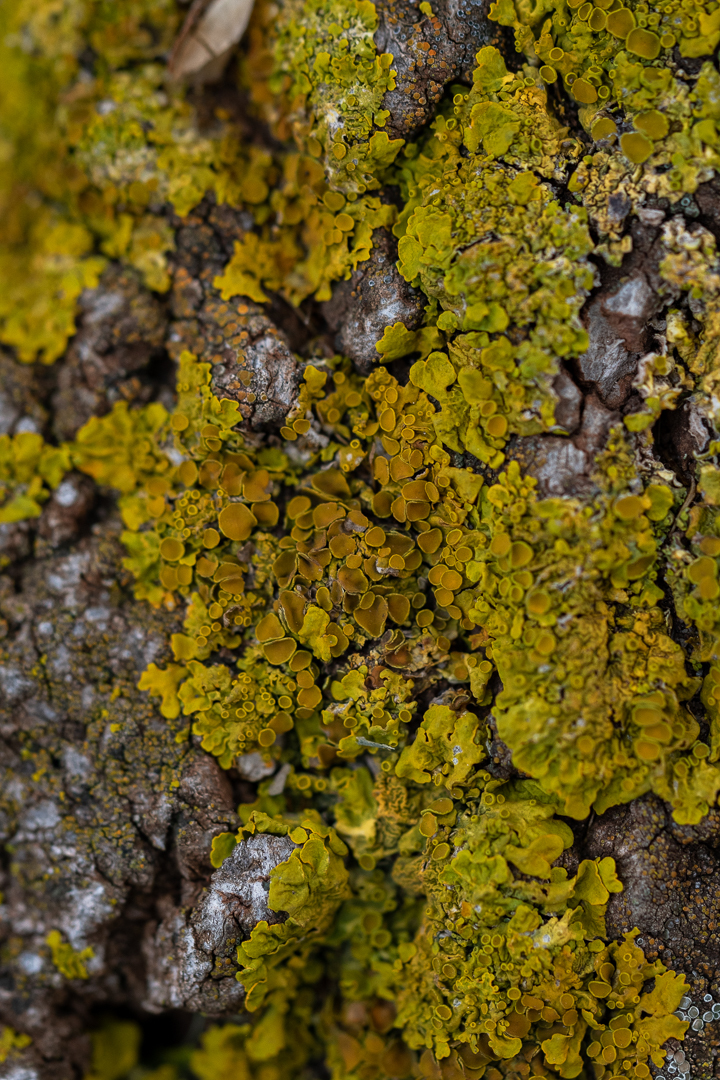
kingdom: Fungi
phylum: Ascomycota
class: Lecanoromycetes
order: Teloschistales
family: Teloschistaceae
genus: Xanthoria
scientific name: Xanthoria parietina
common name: Common orange lichen
